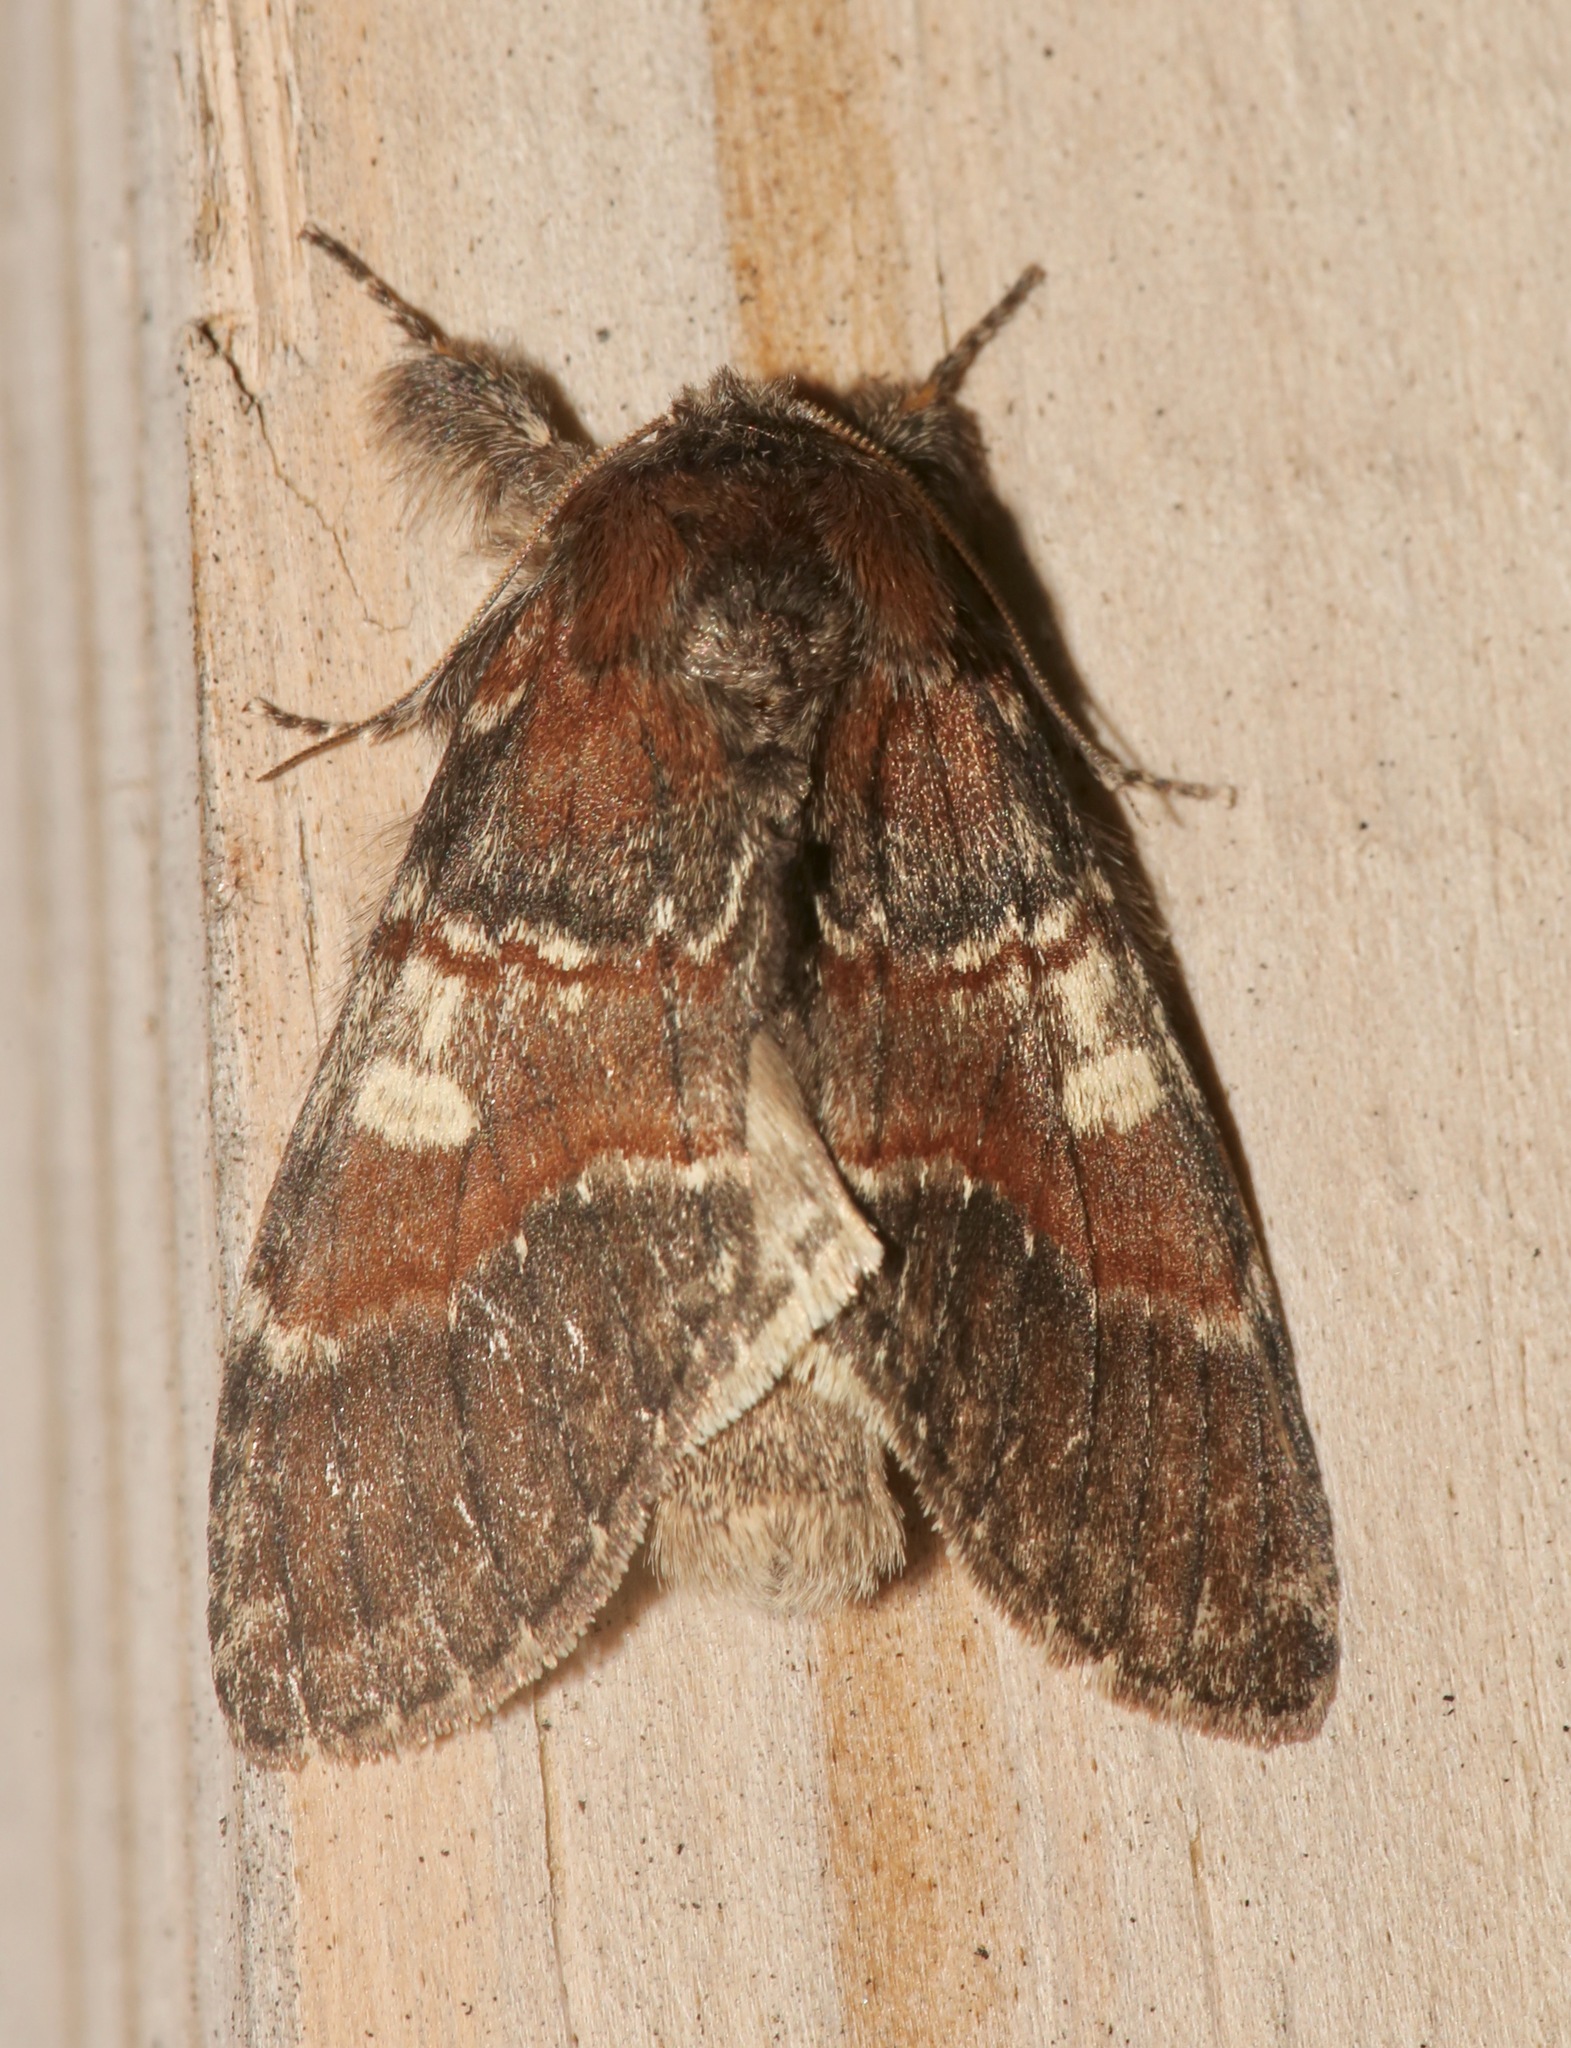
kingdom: Animalia
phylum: Arthropoda
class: Insecta
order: Lepidoptera
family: Notodontidae
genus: Peridea
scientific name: Peridea ferruginea
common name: Chocolate prominent
